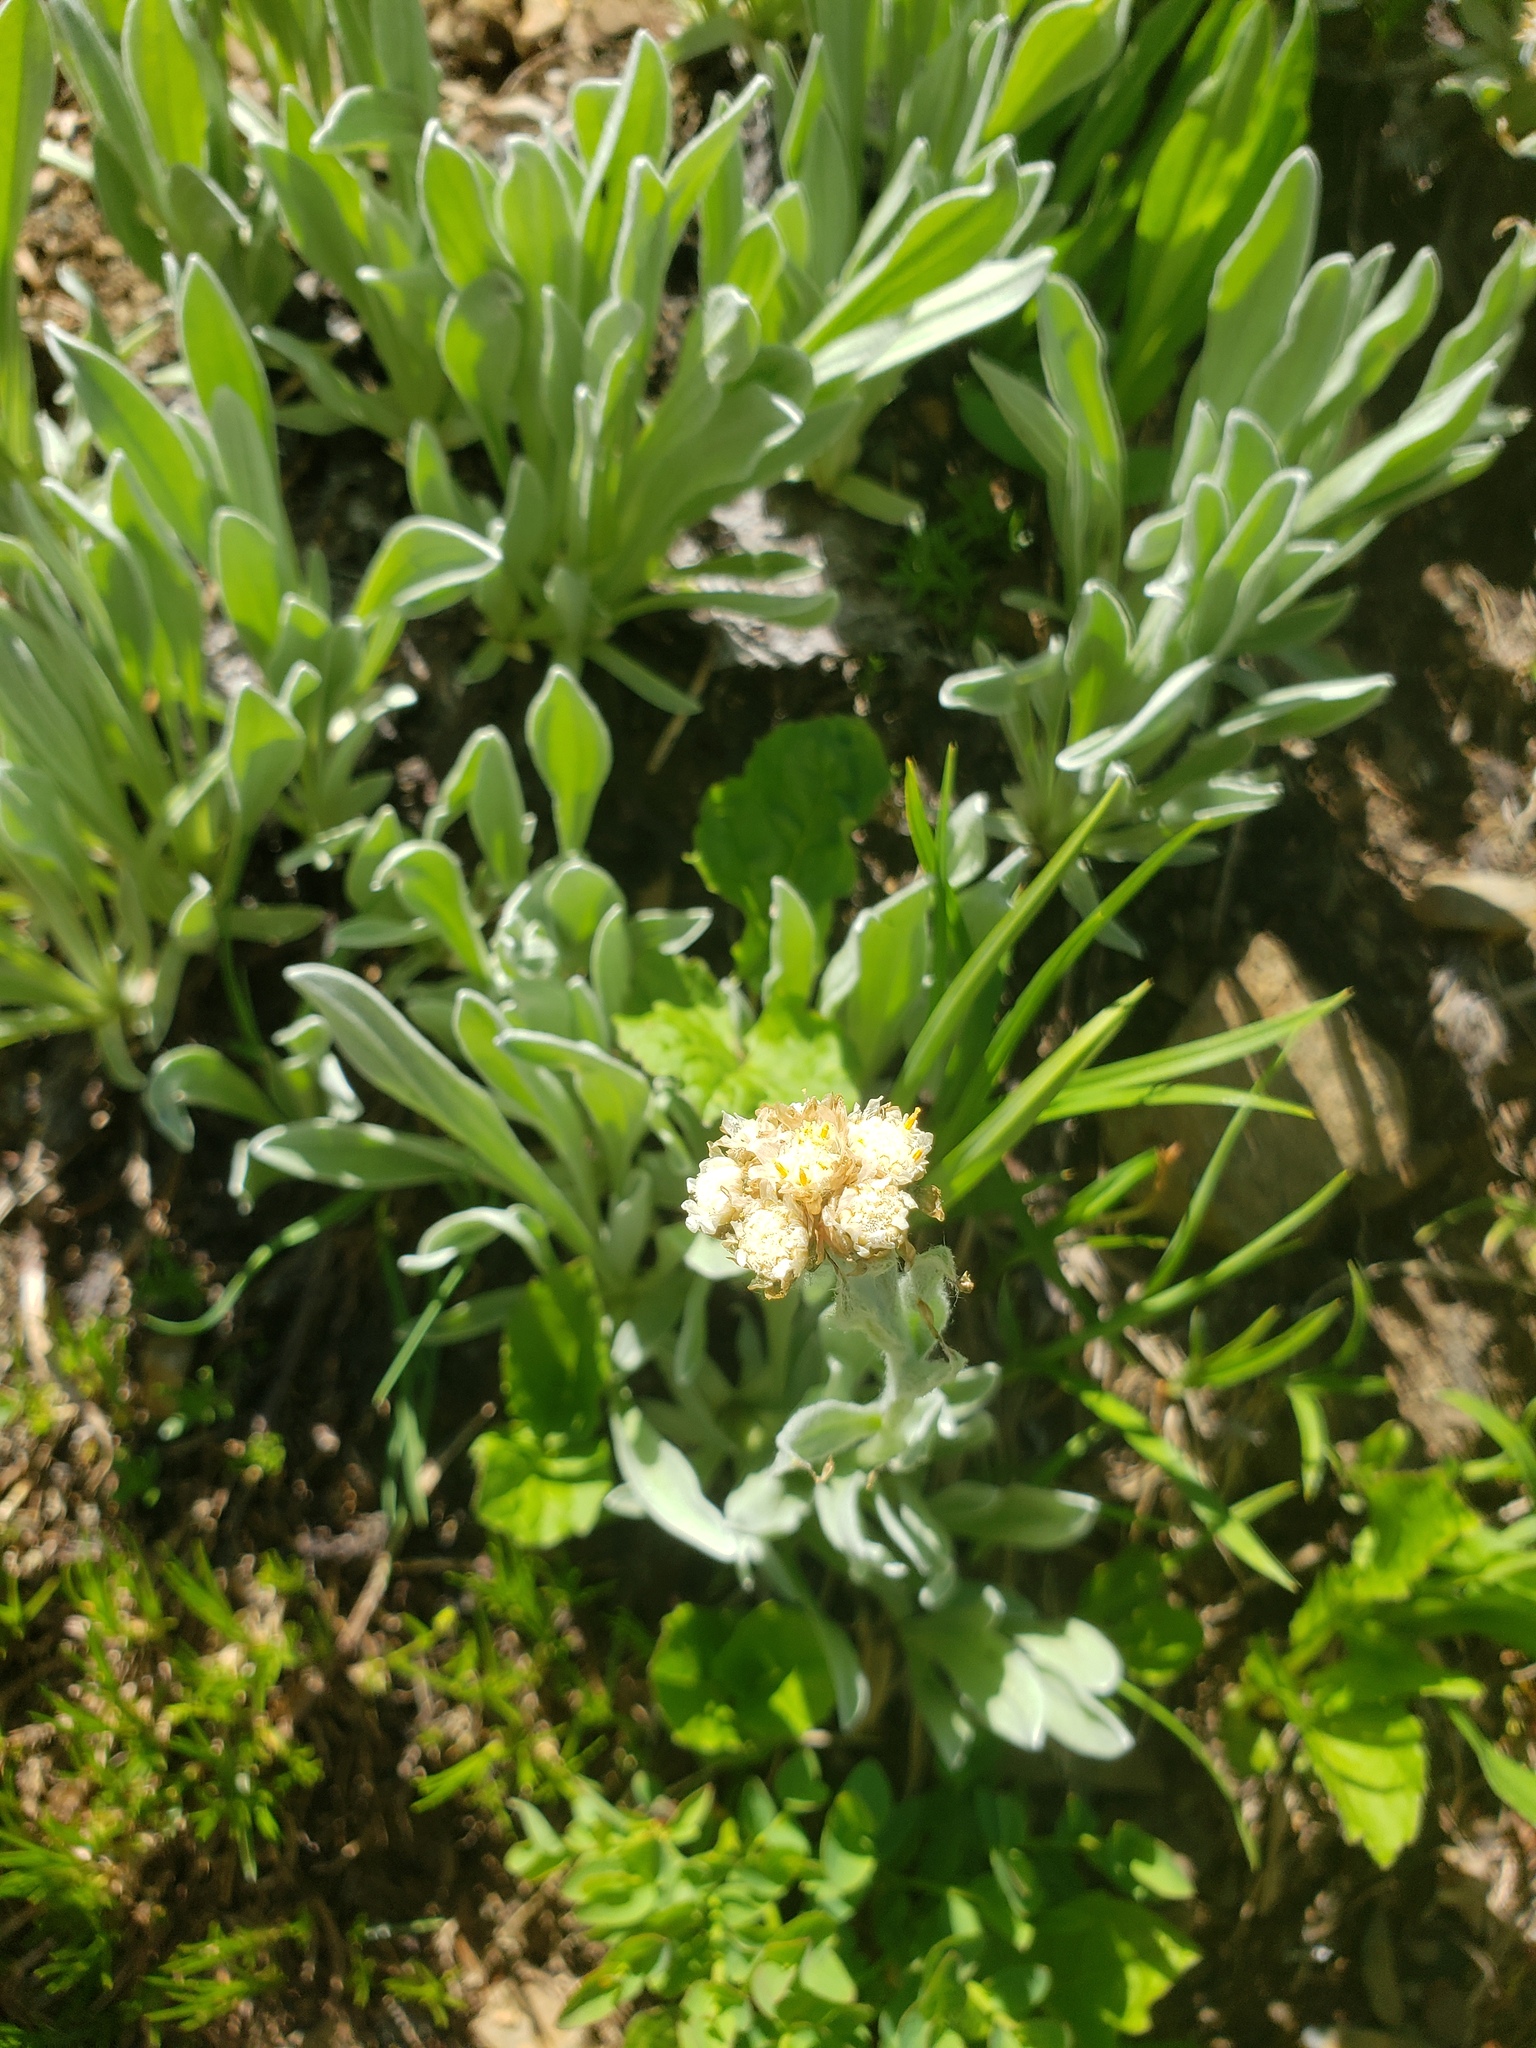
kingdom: Plantae
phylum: Tracheophyta
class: Magnoliopsida
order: Asterales
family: Asteraceae
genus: Antennaria
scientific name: Antennaria lanata
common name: Woolly pussytoes
